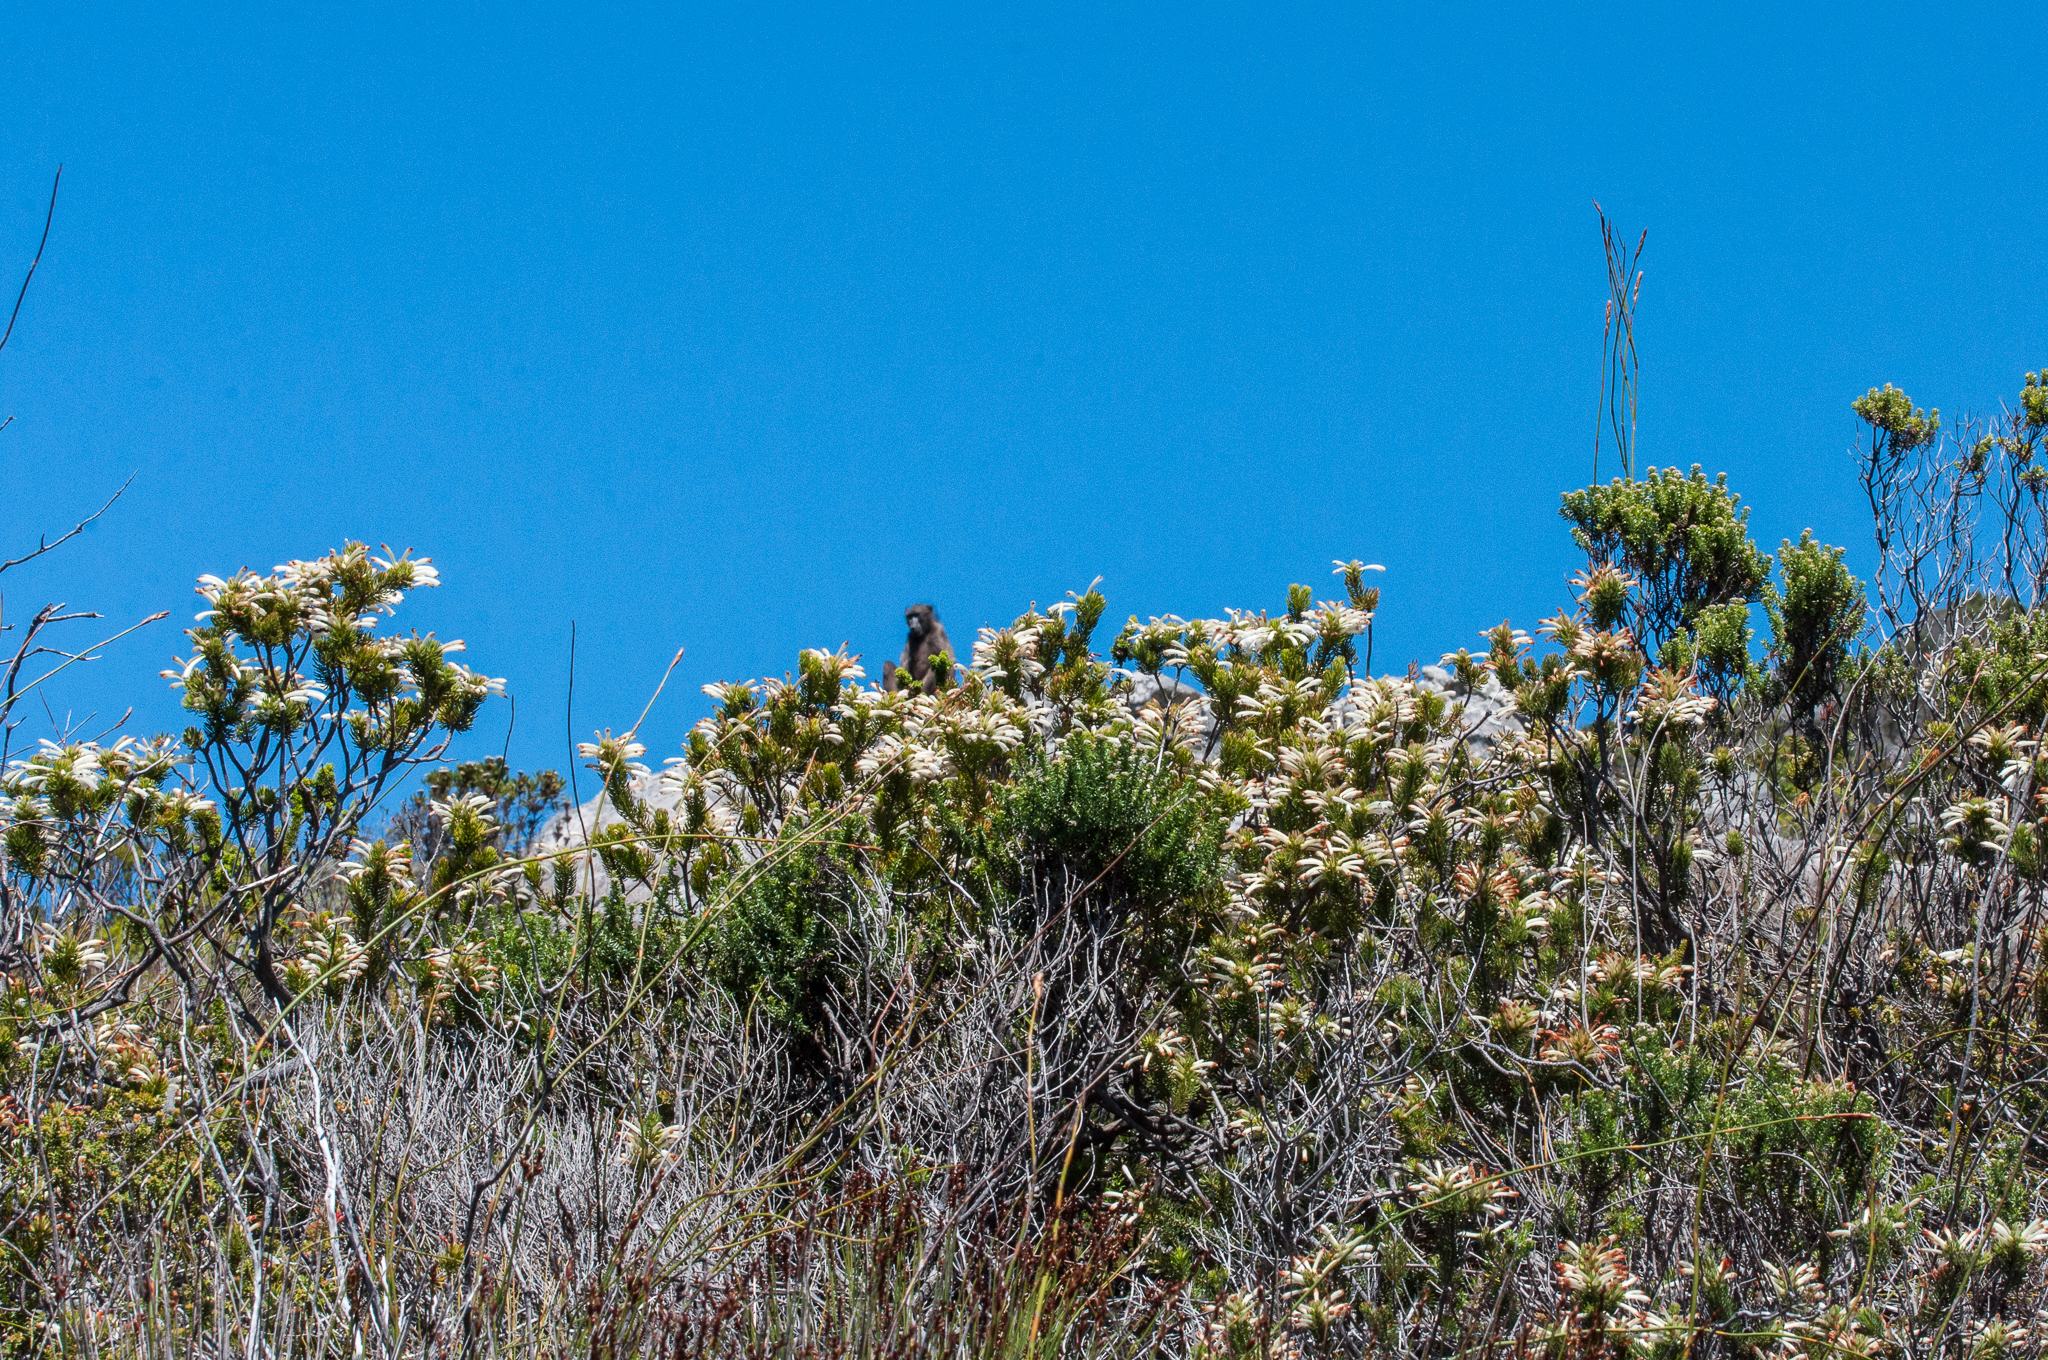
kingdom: Plantae
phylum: Tracheophyta
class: Magnoliopsida
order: Ericales
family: Ericaceae
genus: Erica
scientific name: Erica thomae
